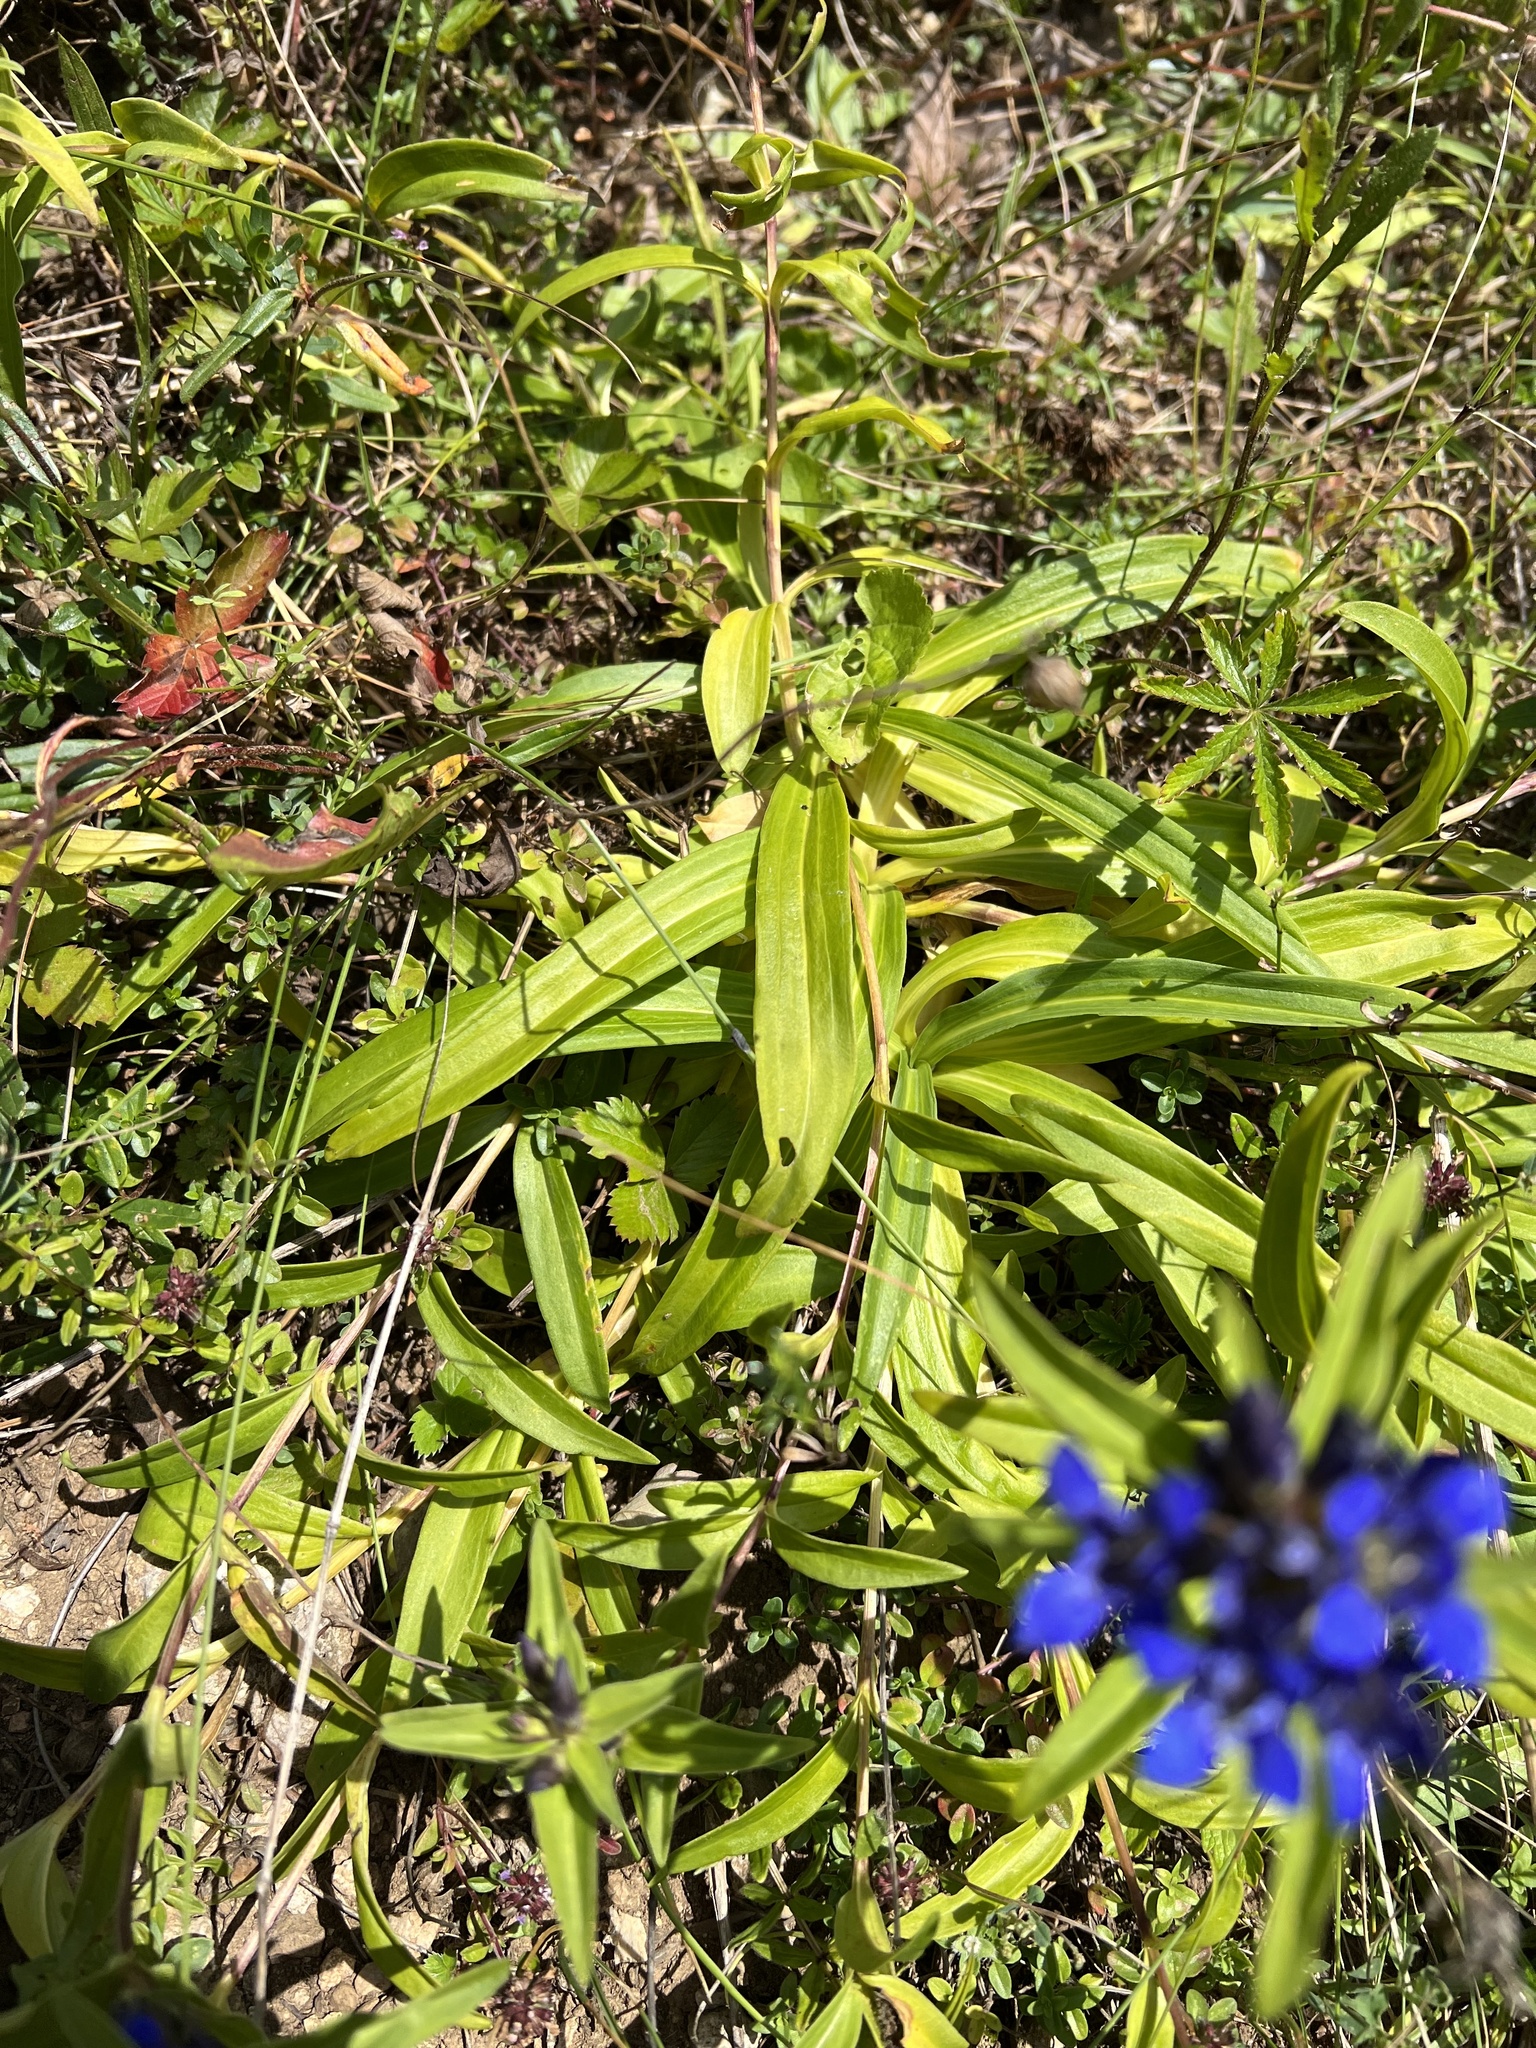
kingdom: Plantae
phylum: Tracheophyta
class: Magnoliopsida
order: Gentianales
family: Gentianaceae
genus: Gentiana
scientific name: Gentiana cruciata
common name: Cross gentian
